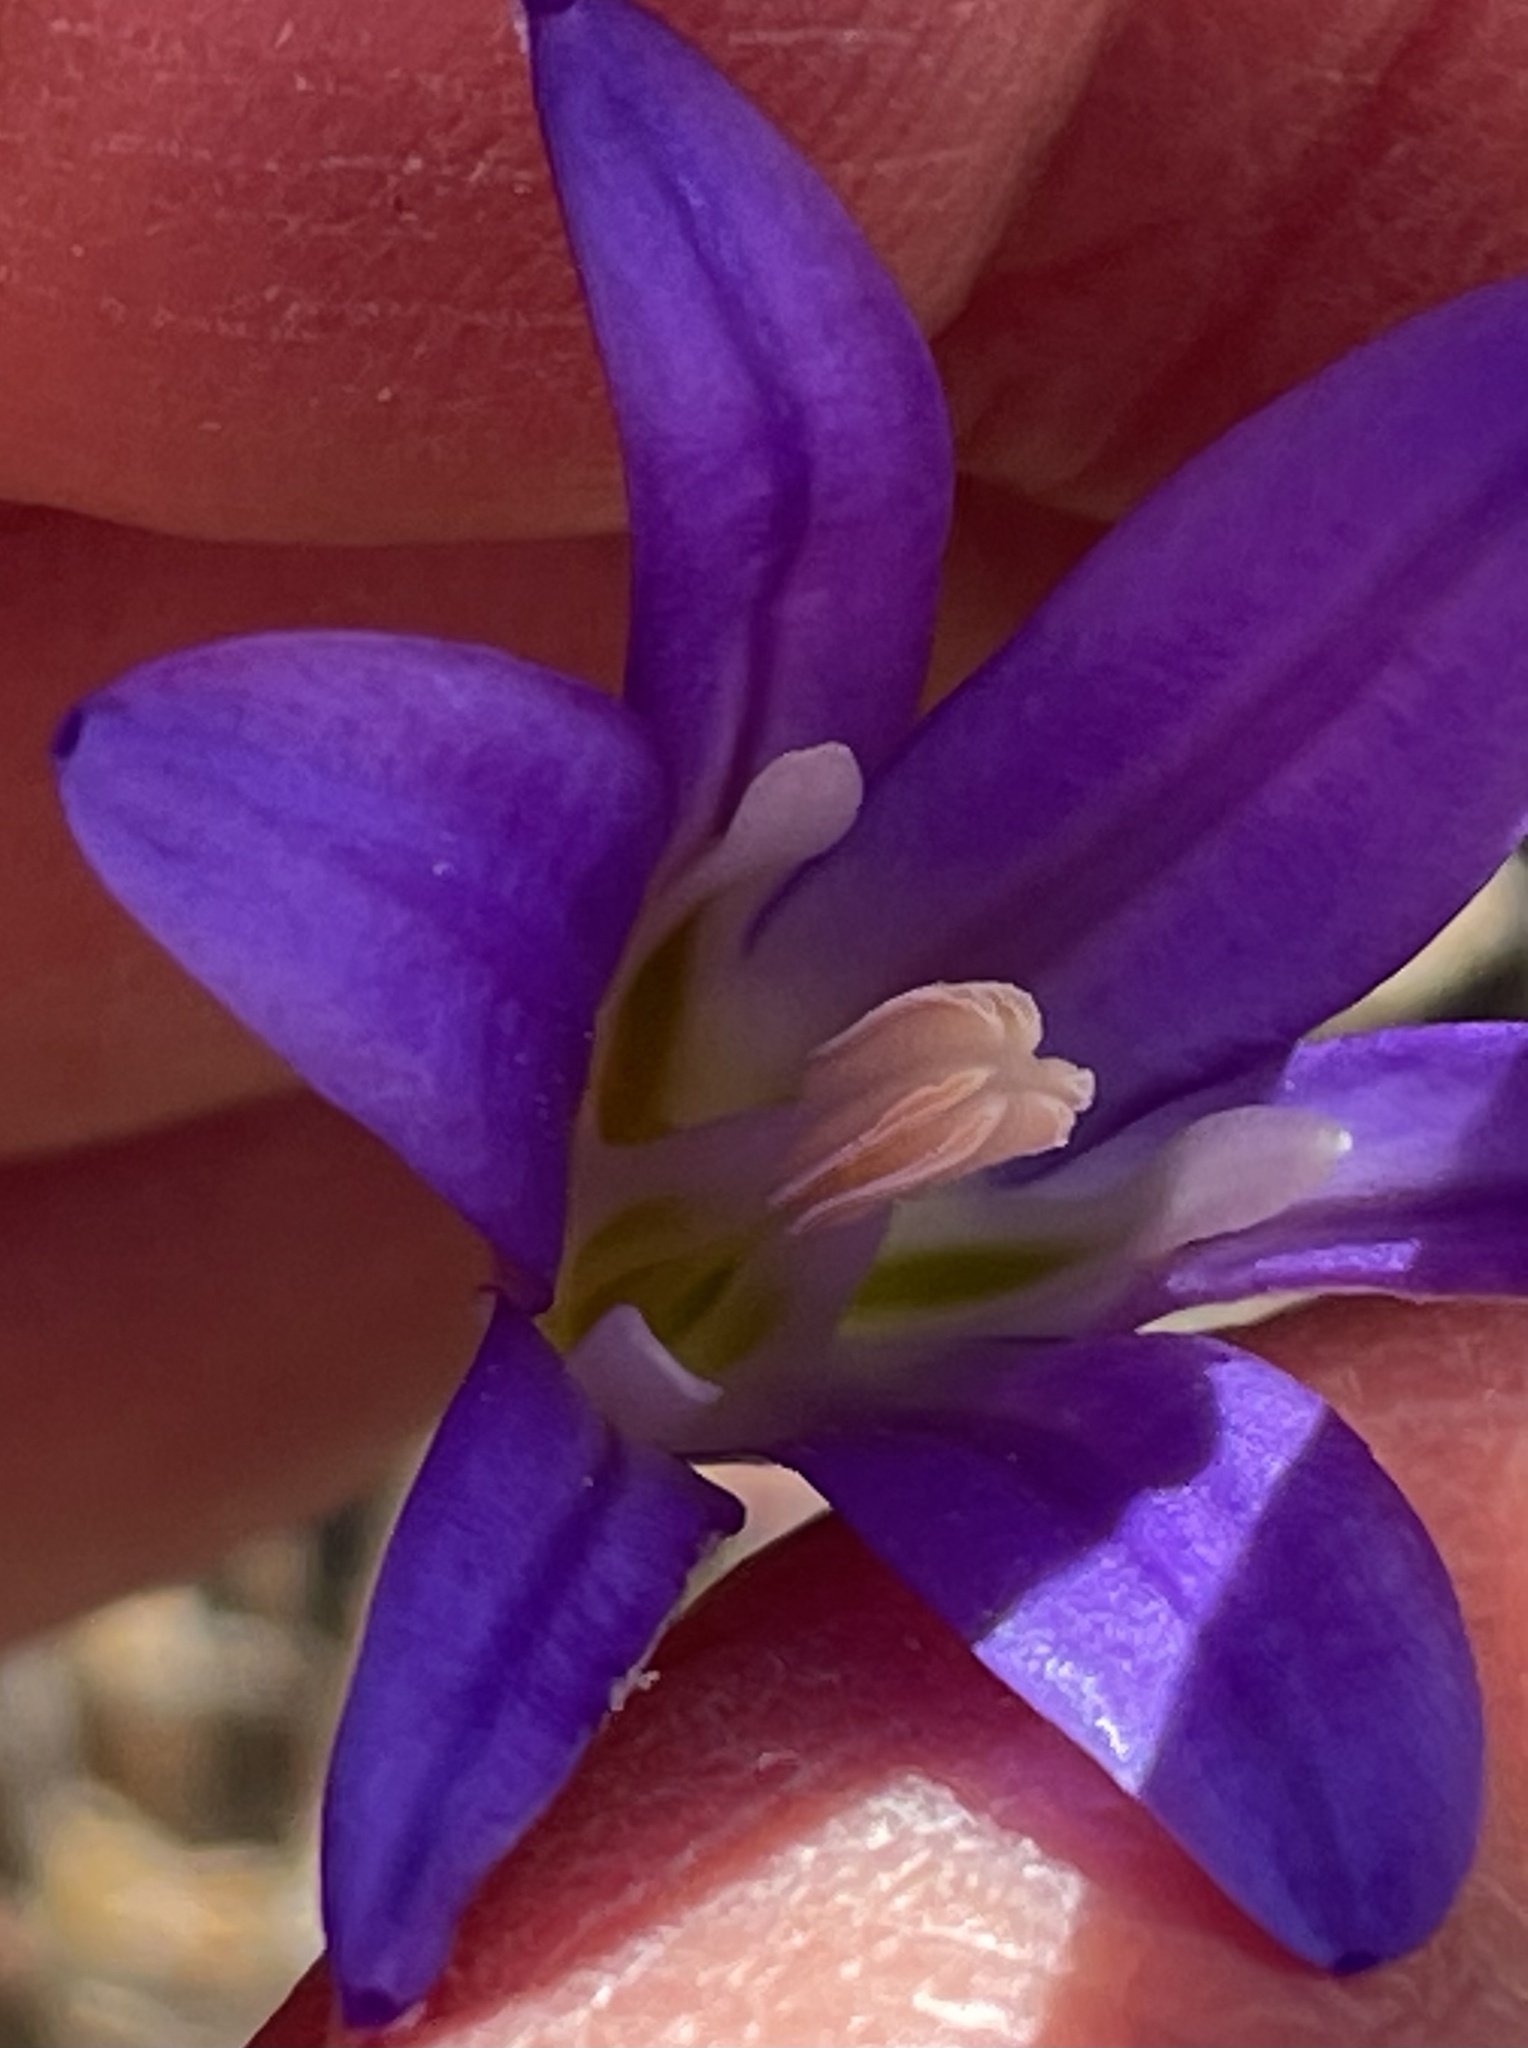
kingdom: Plantae
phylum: Tracheophyta
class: Liliopsida
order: Asparagales
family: Asparagaceae
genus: Brodiaea
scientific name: Brodiaea elegans
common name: Elegant cluster-lily
